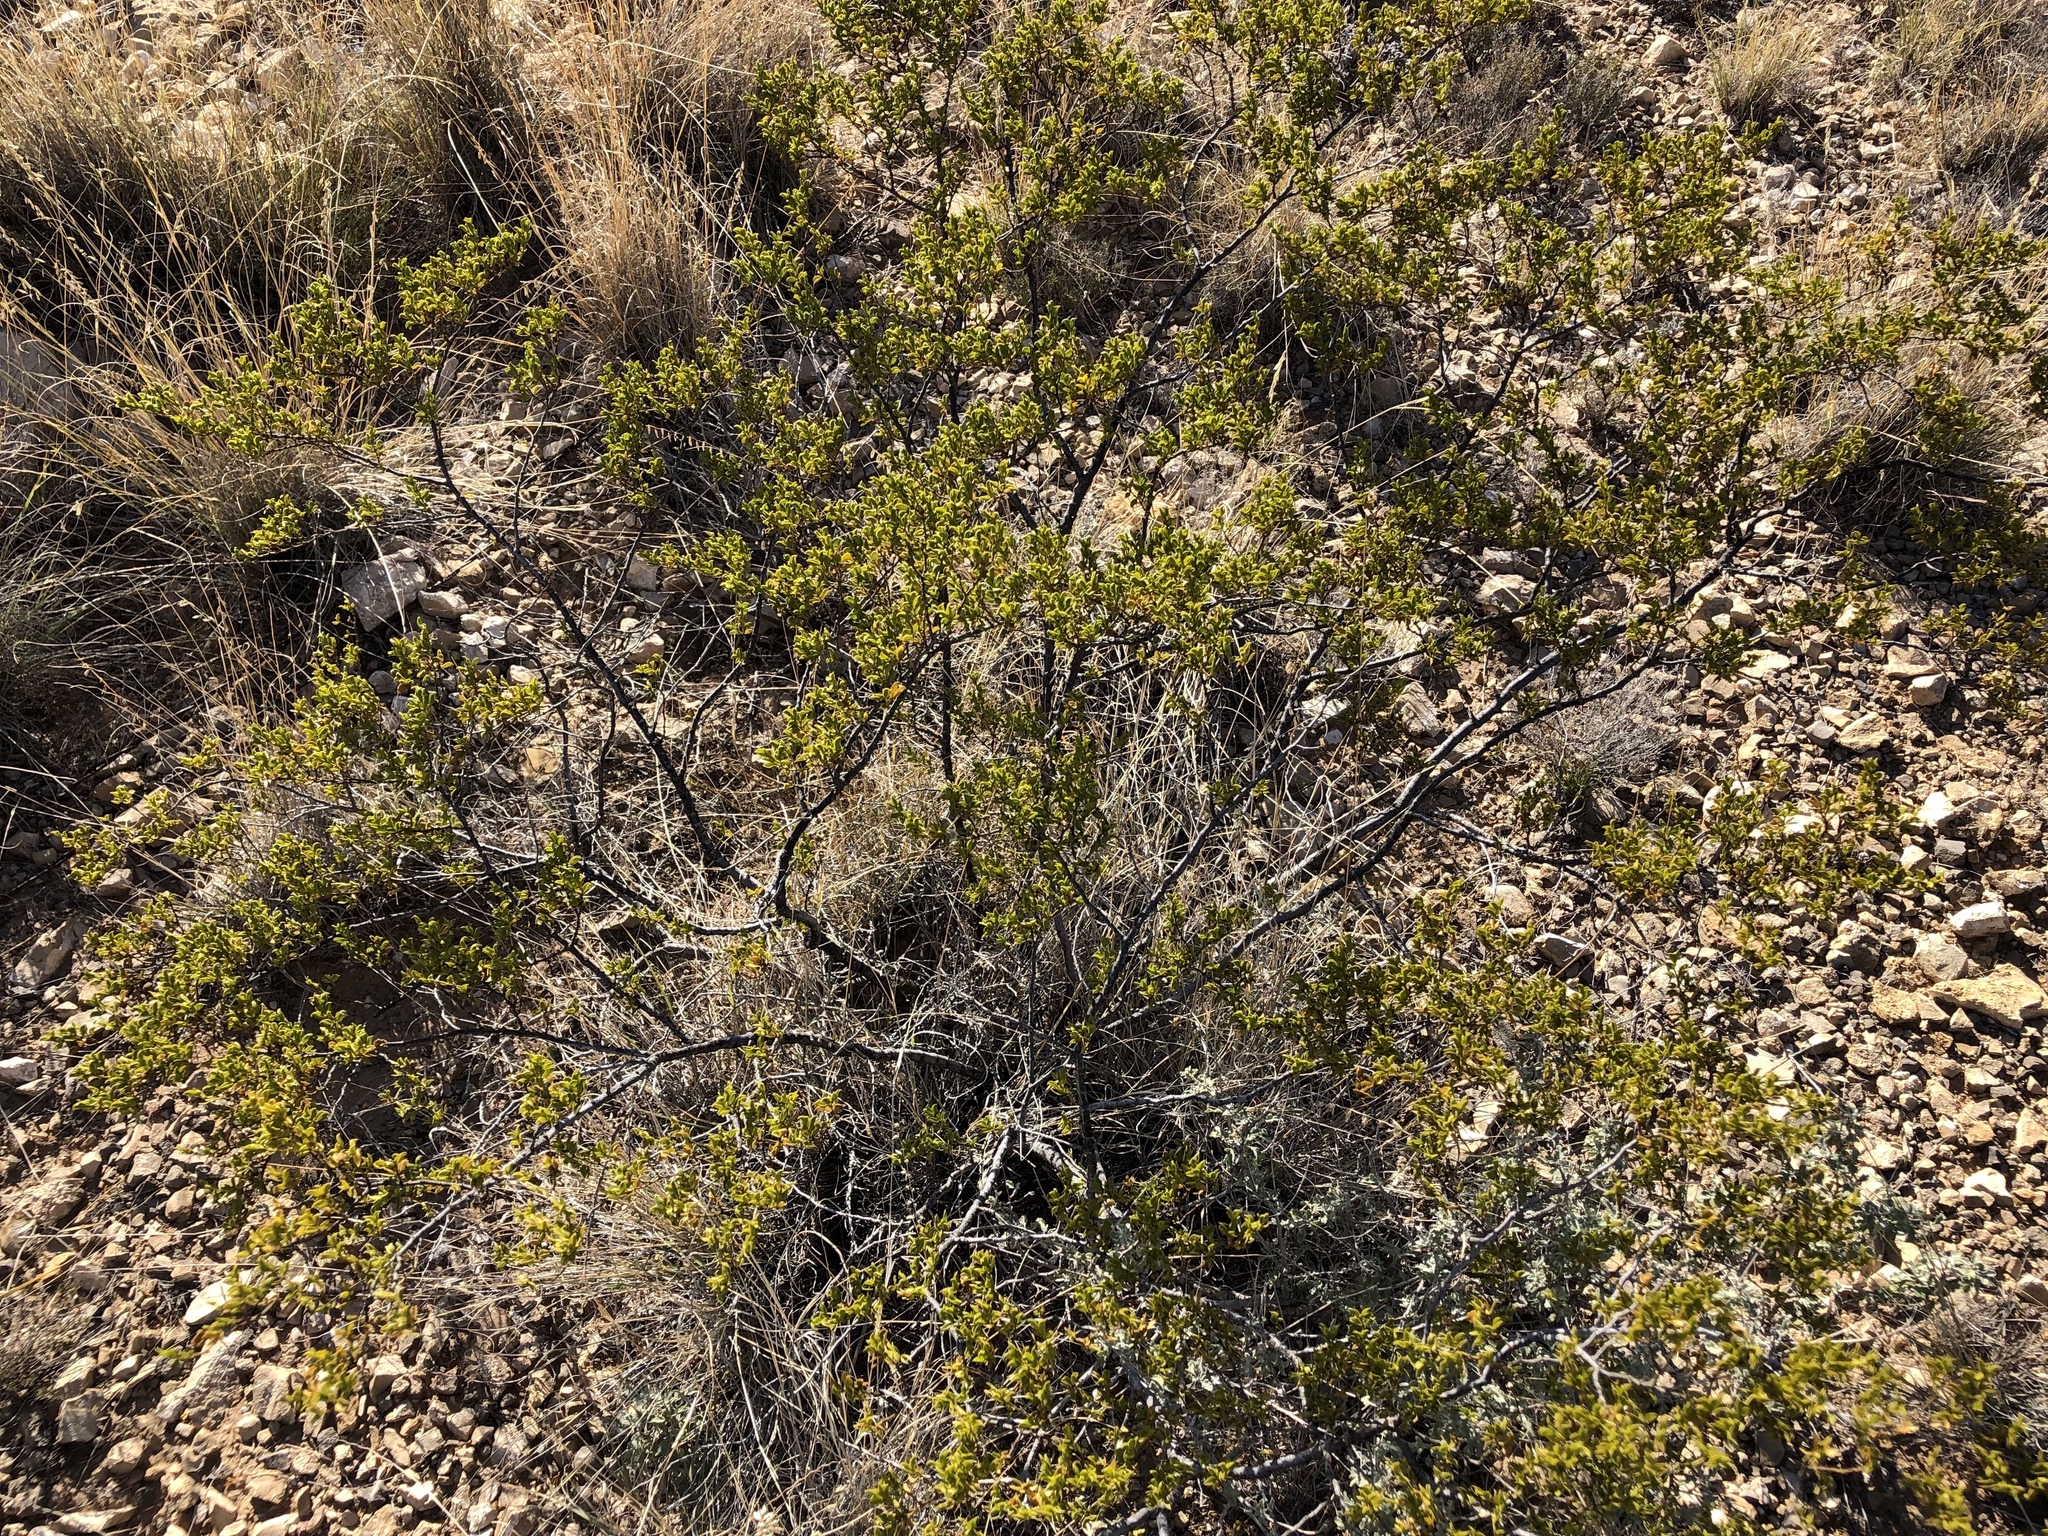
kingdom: Plantae
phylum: Tracheophyta
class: Magnoliopsida
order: Zygophyllales
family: Zygophyllaceae
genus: Larrea
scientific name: Larrea tridentata
